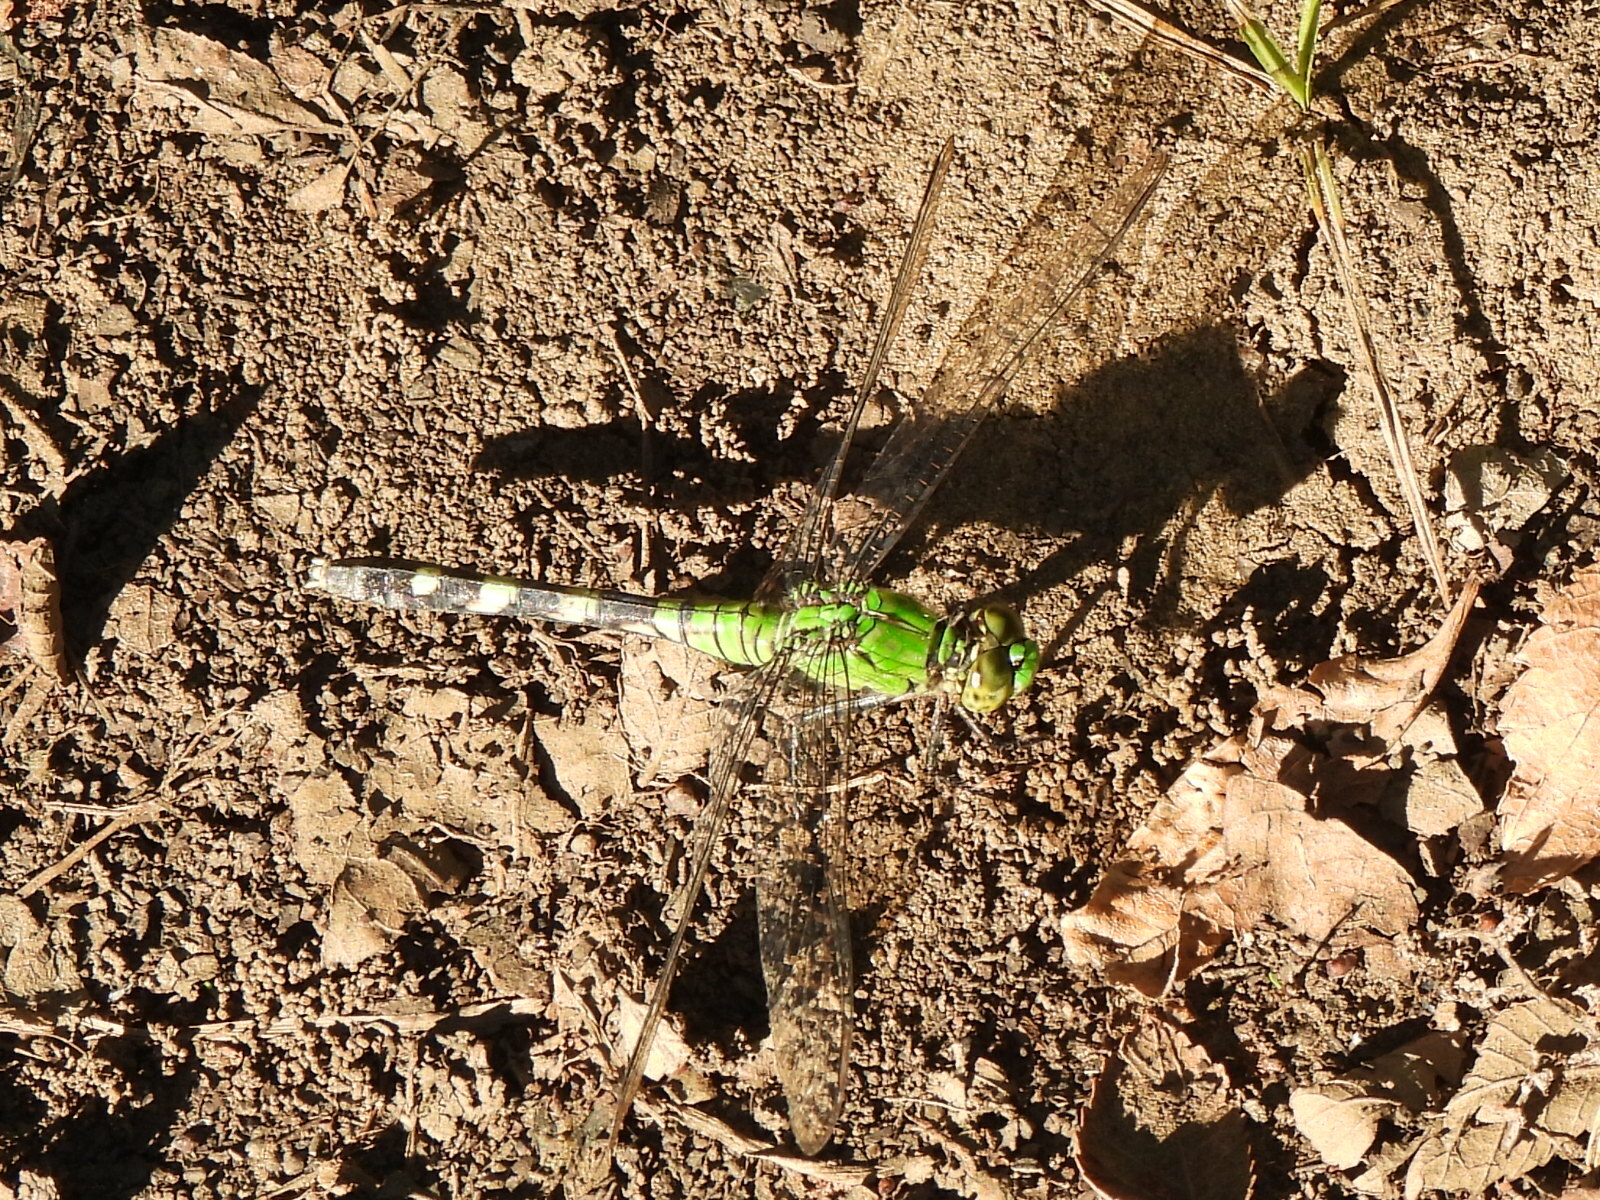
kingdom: Animalia
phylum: Arthropoda
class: Insecta
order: Odonata
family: Libellulidae
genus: Erythemis
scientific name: Erythemis simplicicollis
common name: Eastern pondhawk
